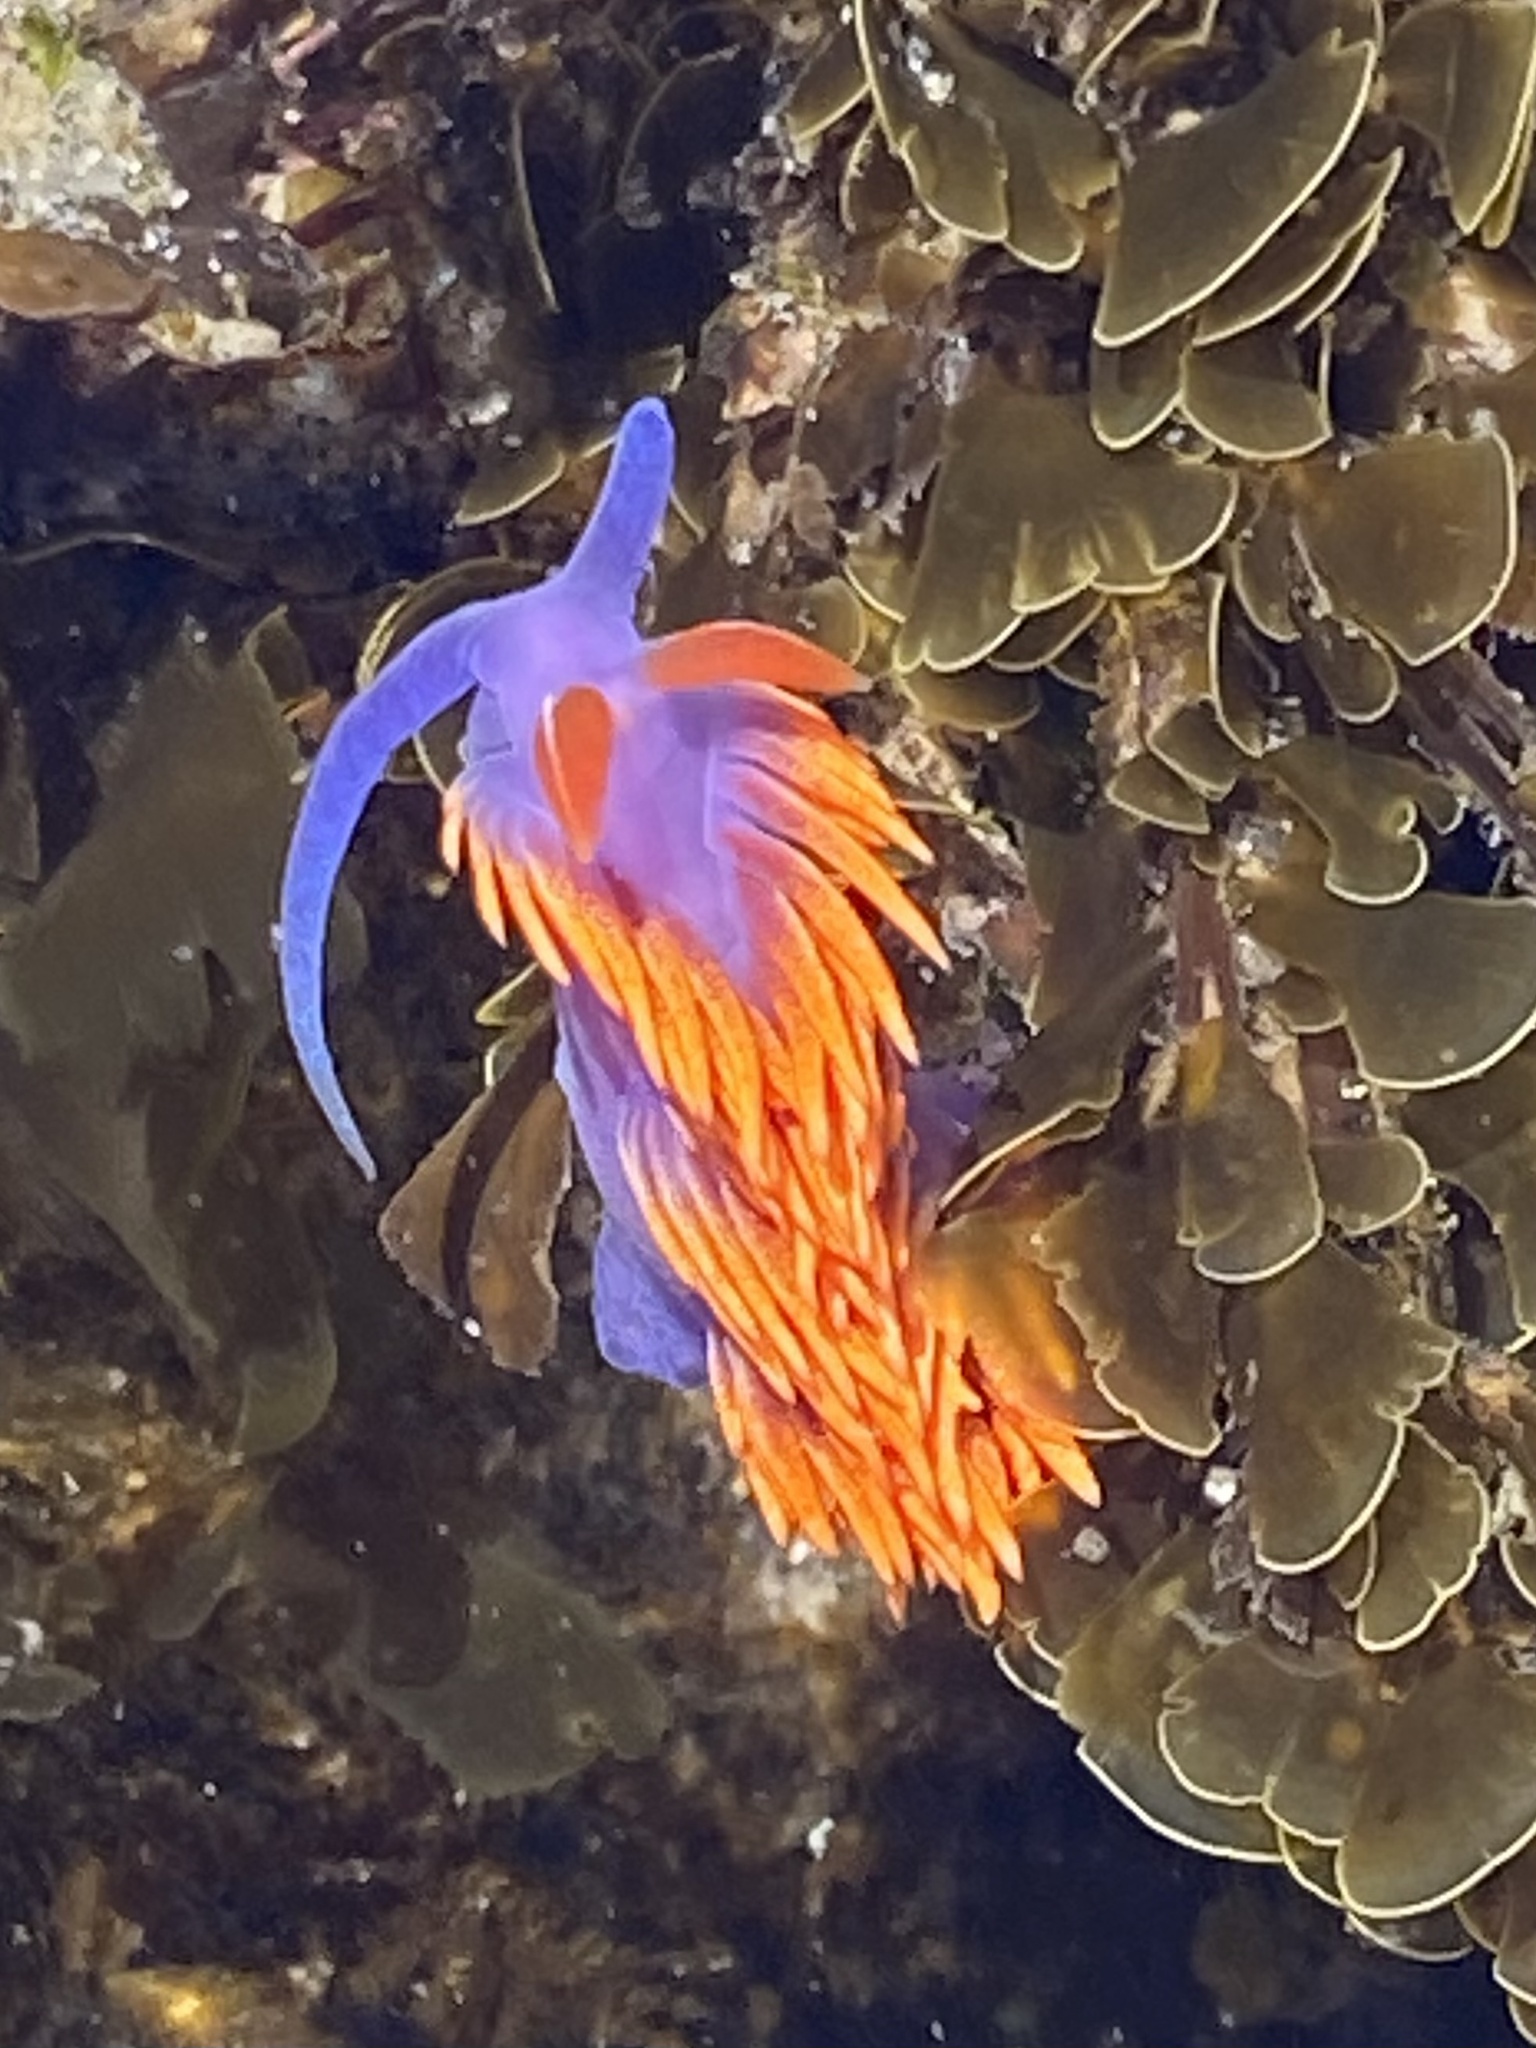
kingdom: Animalia
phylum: Mollusca
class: Gastropoda
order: Nudibranchia
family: Flabellinopsidae
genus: Flabellinopsis
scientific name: Flabellinopsis iodinea
